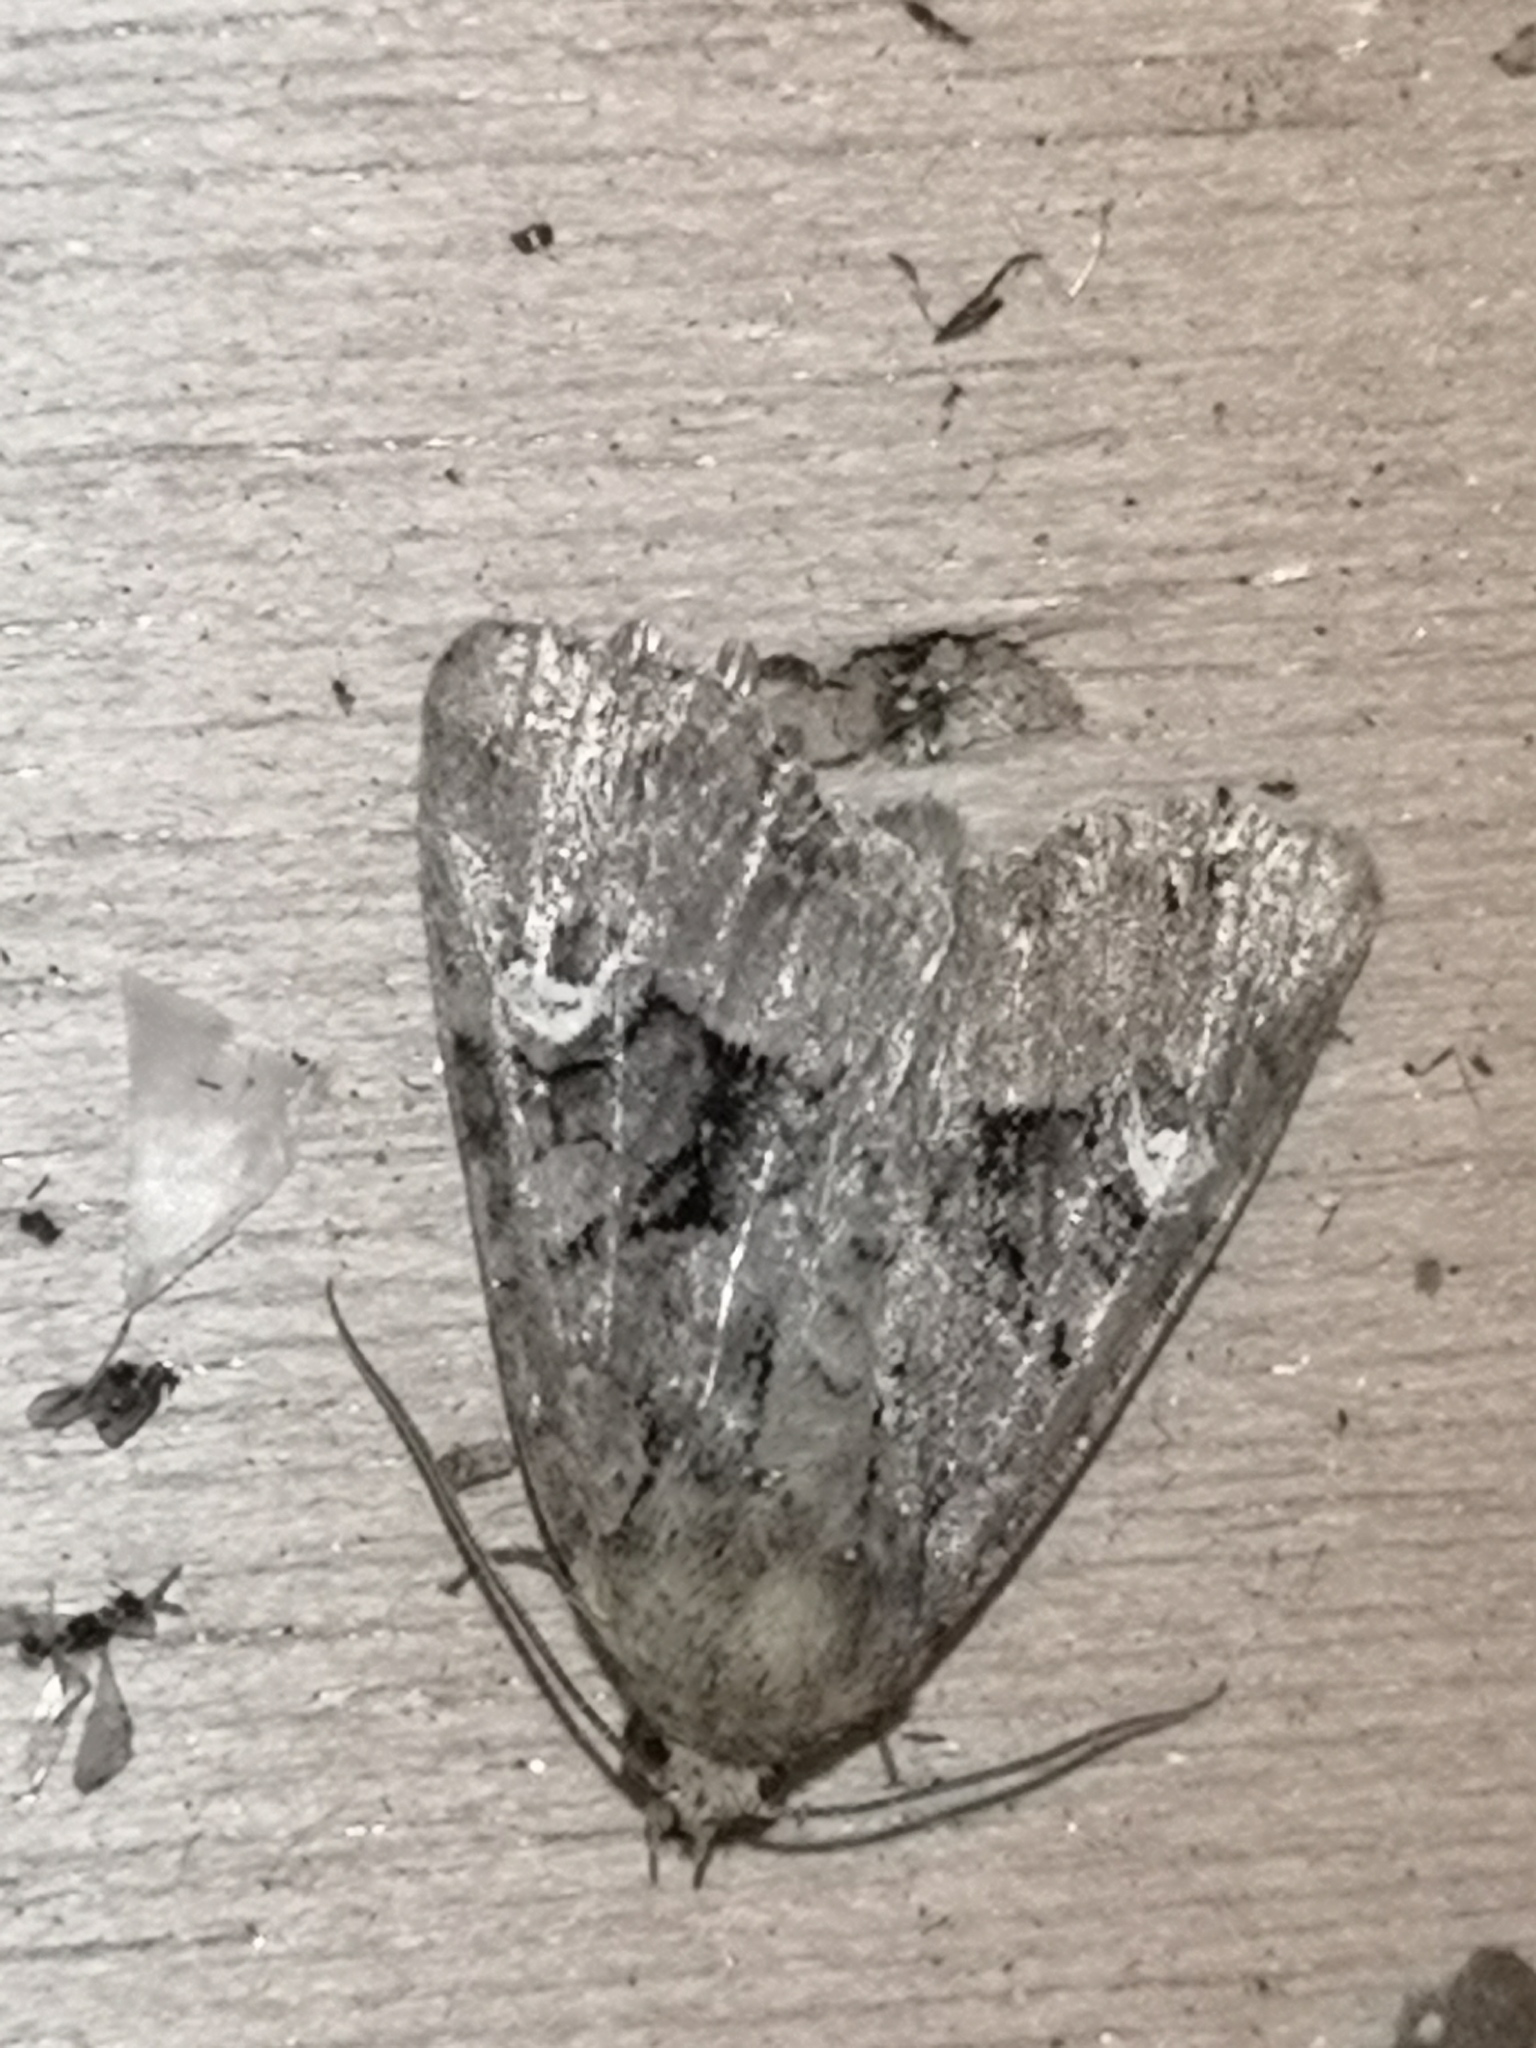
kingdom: Animalia
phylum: Arthropoda
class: Insecta
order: Lepidoptera
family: Noctuidae
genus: Mesapamea
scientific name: Mesapamea
